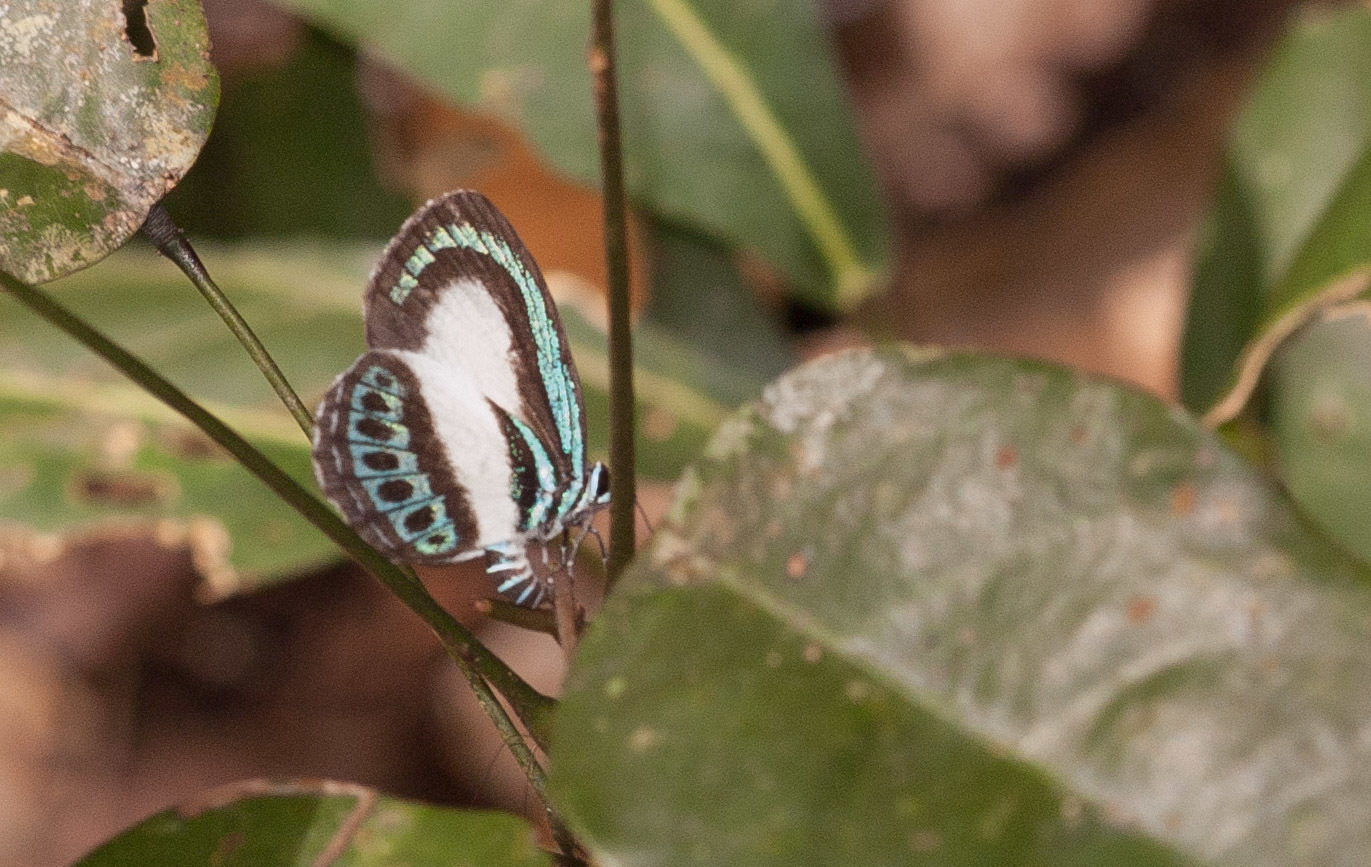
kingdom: Animalia
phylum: Arthropoda
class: Insecta
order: Lepidoptera
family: Lycaenidae
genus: Danis
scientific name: Danis danis
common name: Large green-banded blue
